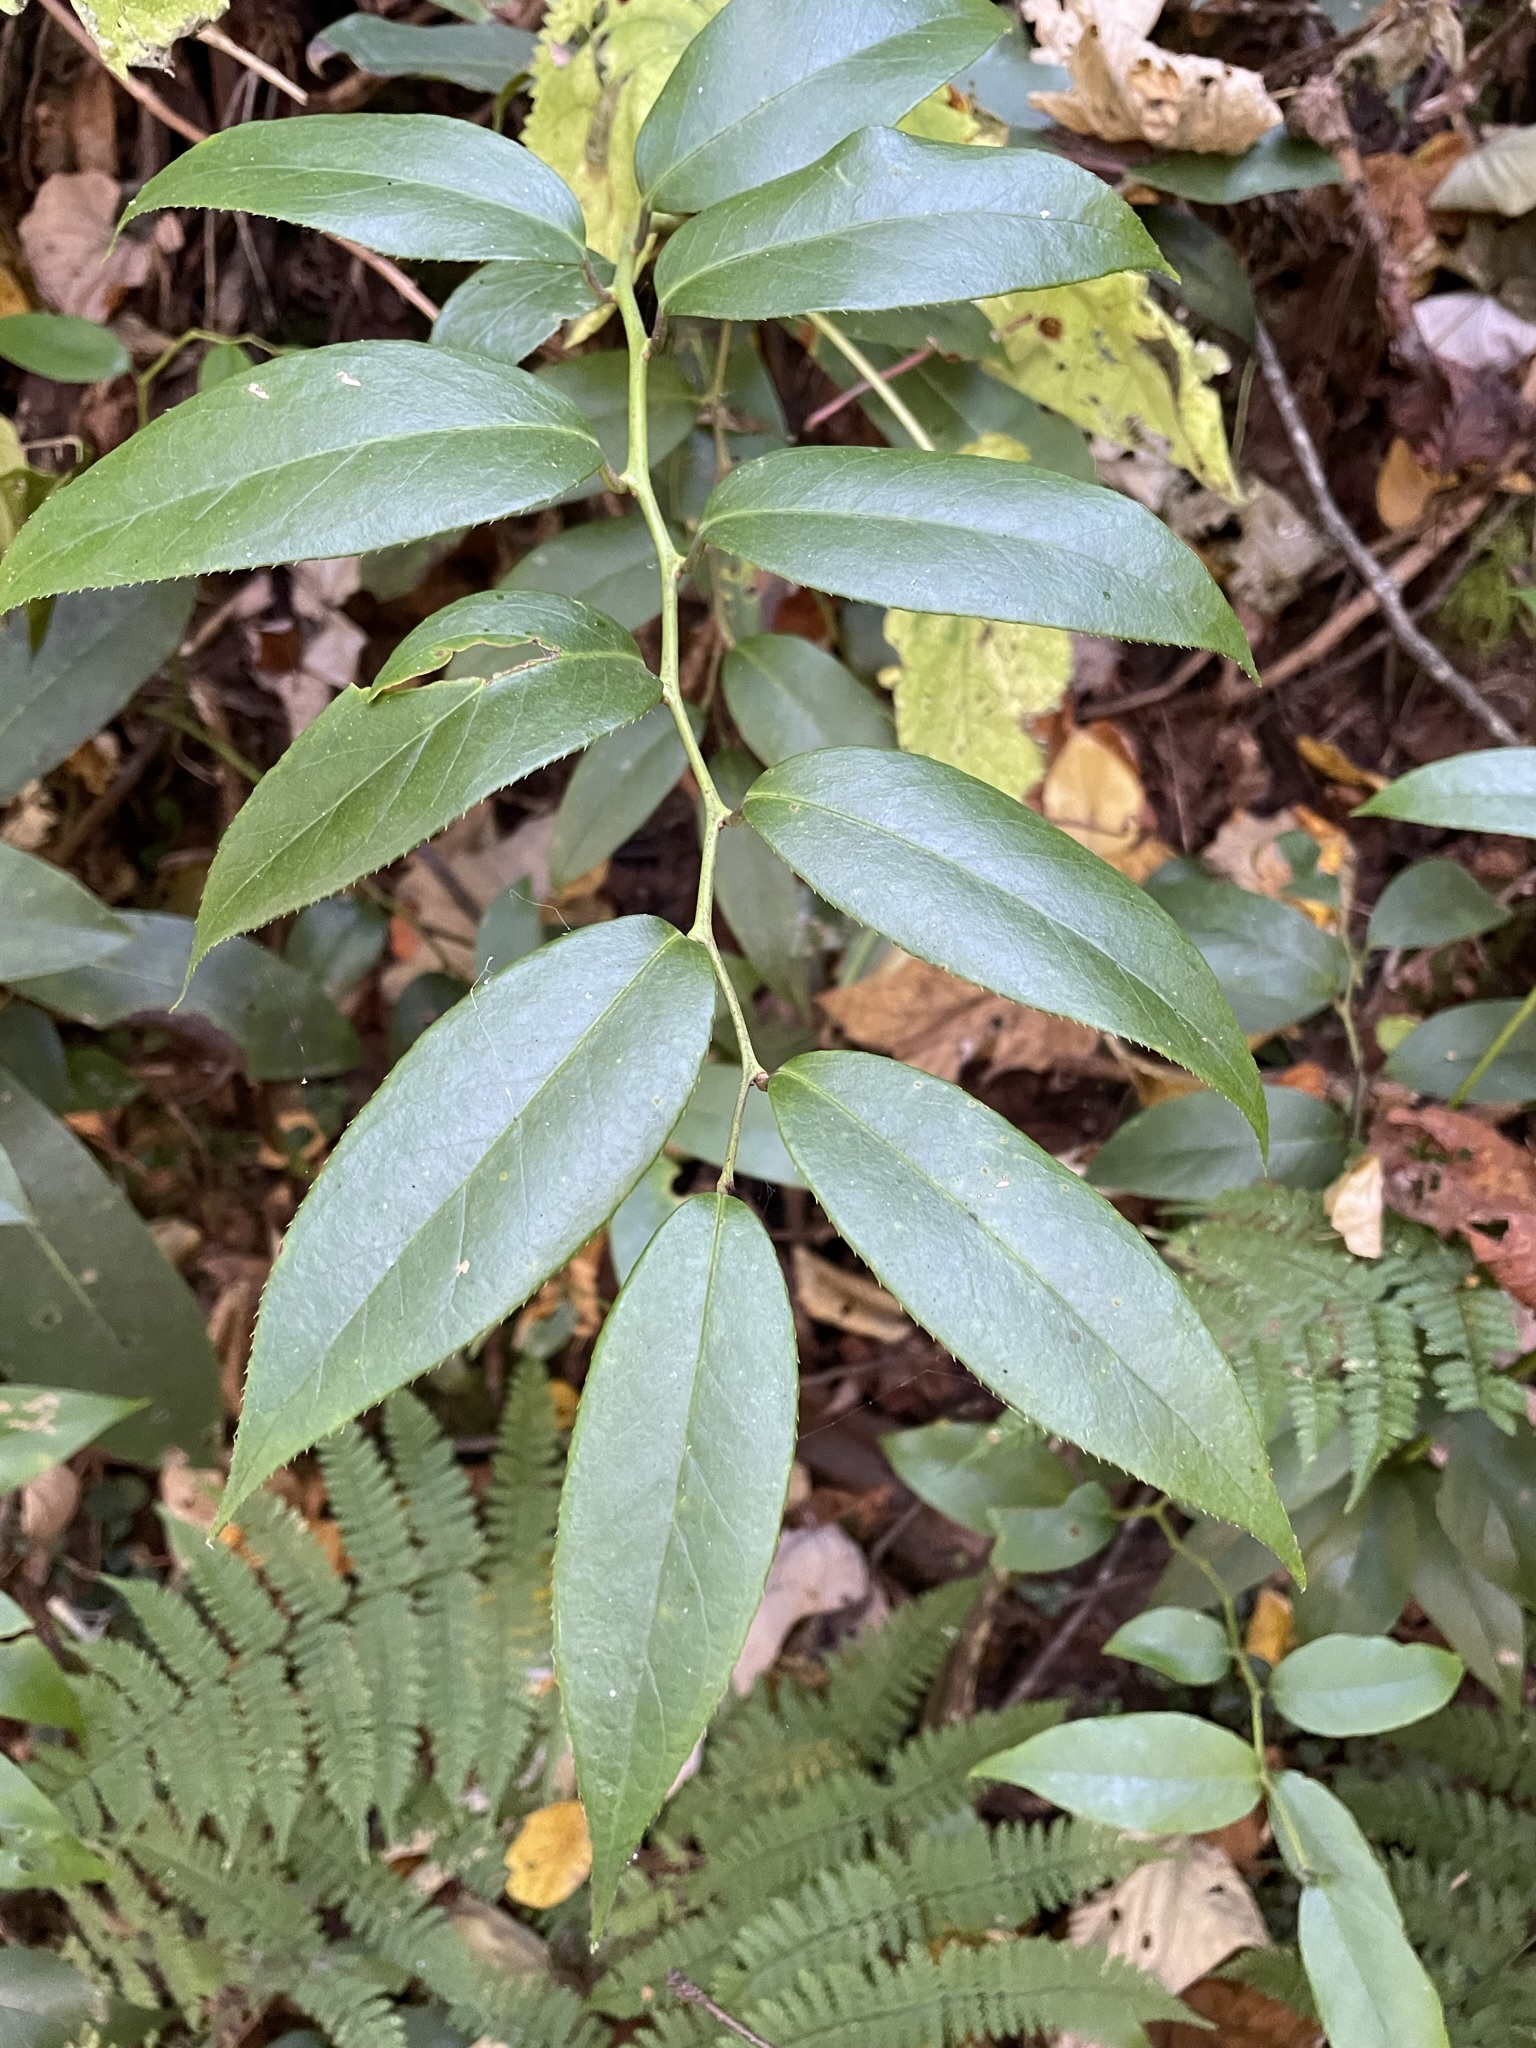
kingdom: Plantae
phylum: Tracheophyta
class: Magnoliopsida
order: Ericales
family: Ericaceae
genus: Leucothoe
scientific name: Leucothoe fontanesiana
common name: Fetterbush
